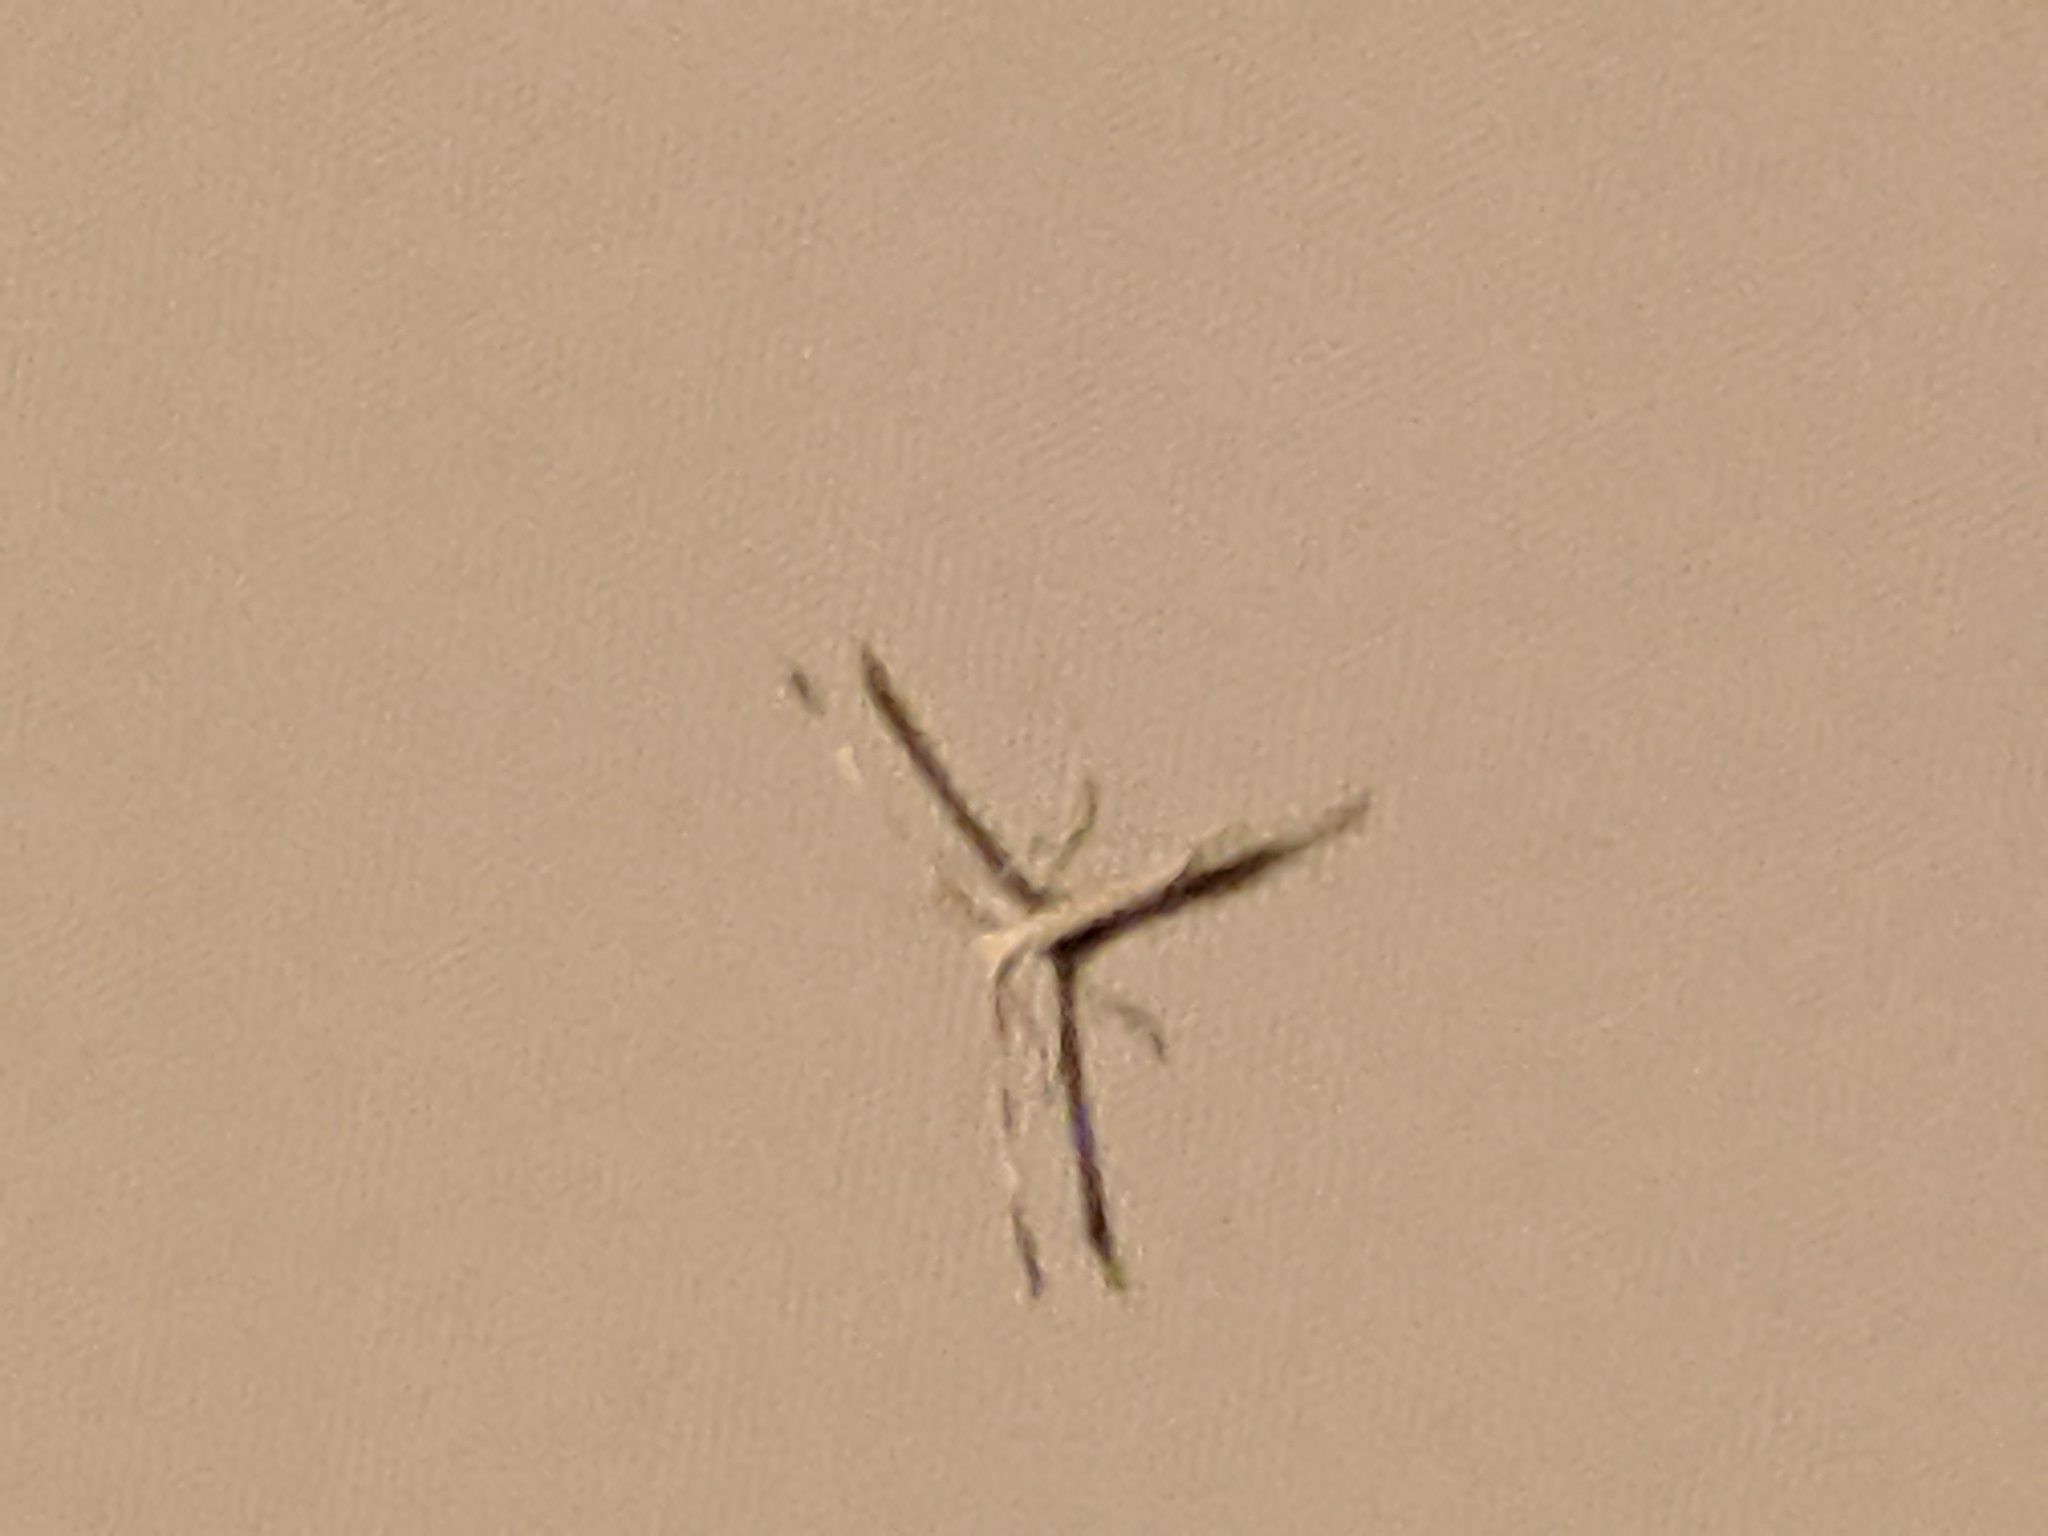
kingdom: Animalia
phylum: Arthropoda
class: Insecta
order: Lepidoptera
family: Pterophoridae
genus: Emmelina
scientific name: Emmelina monodactyla
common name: Common plume
